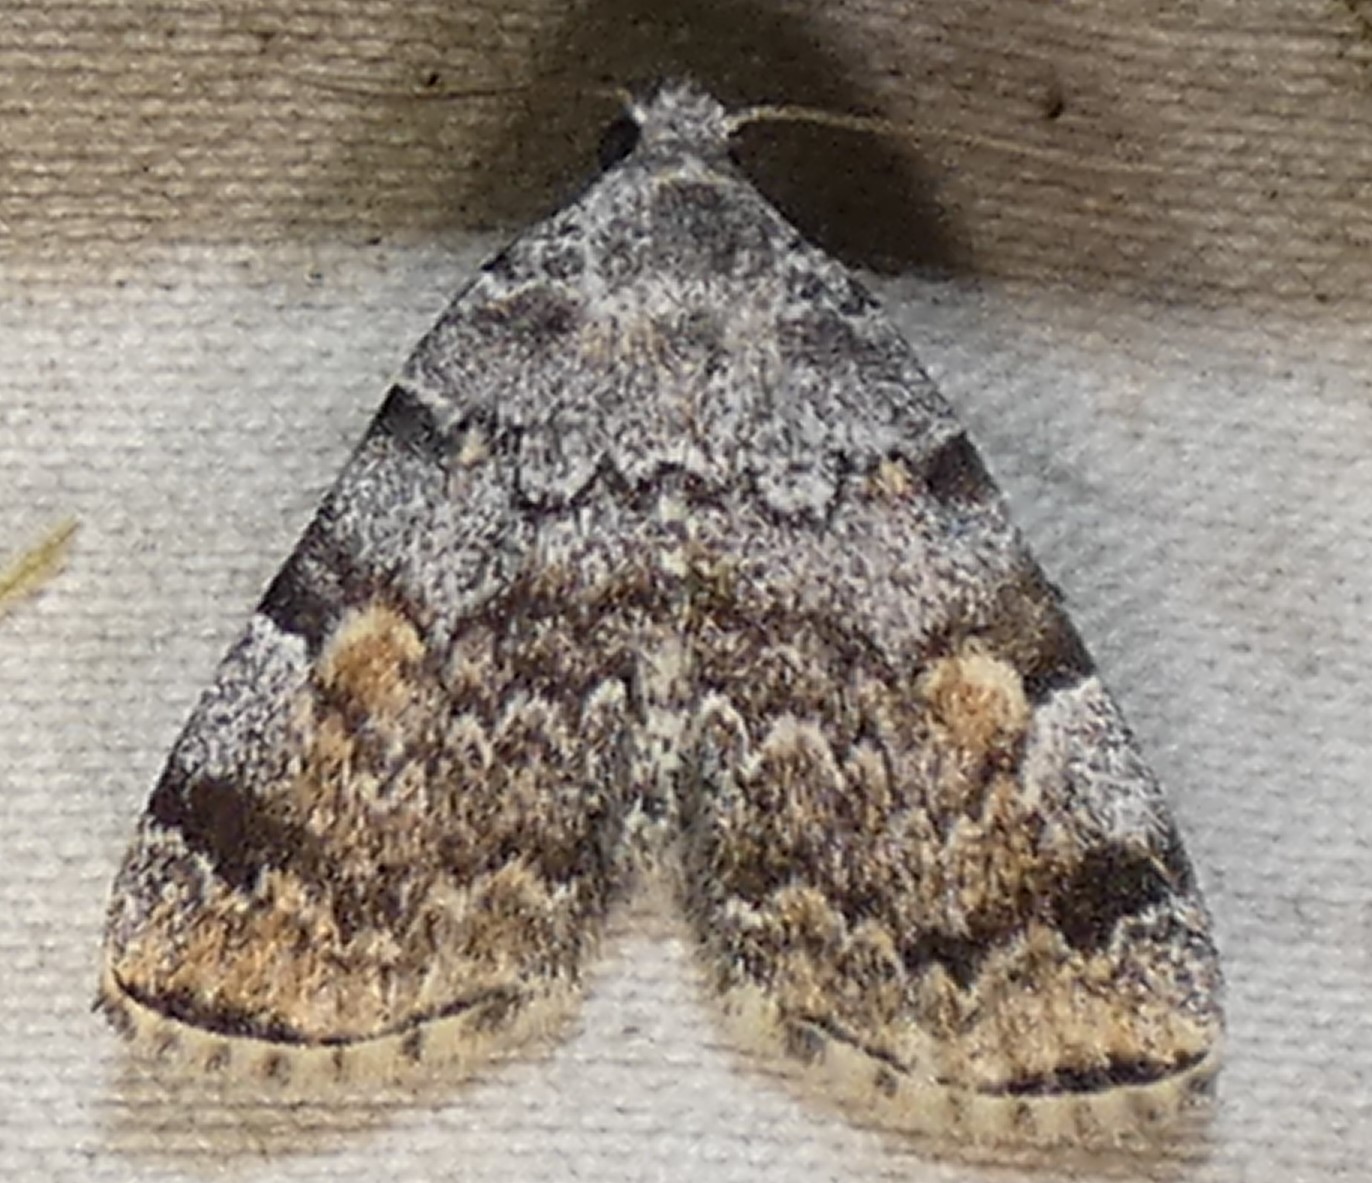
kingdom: Animalia
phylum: Arthropoda
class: Insecta
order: Lepidoptera
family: Erebidae
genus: Idia
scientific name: Idia americalis
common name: American idia moth
